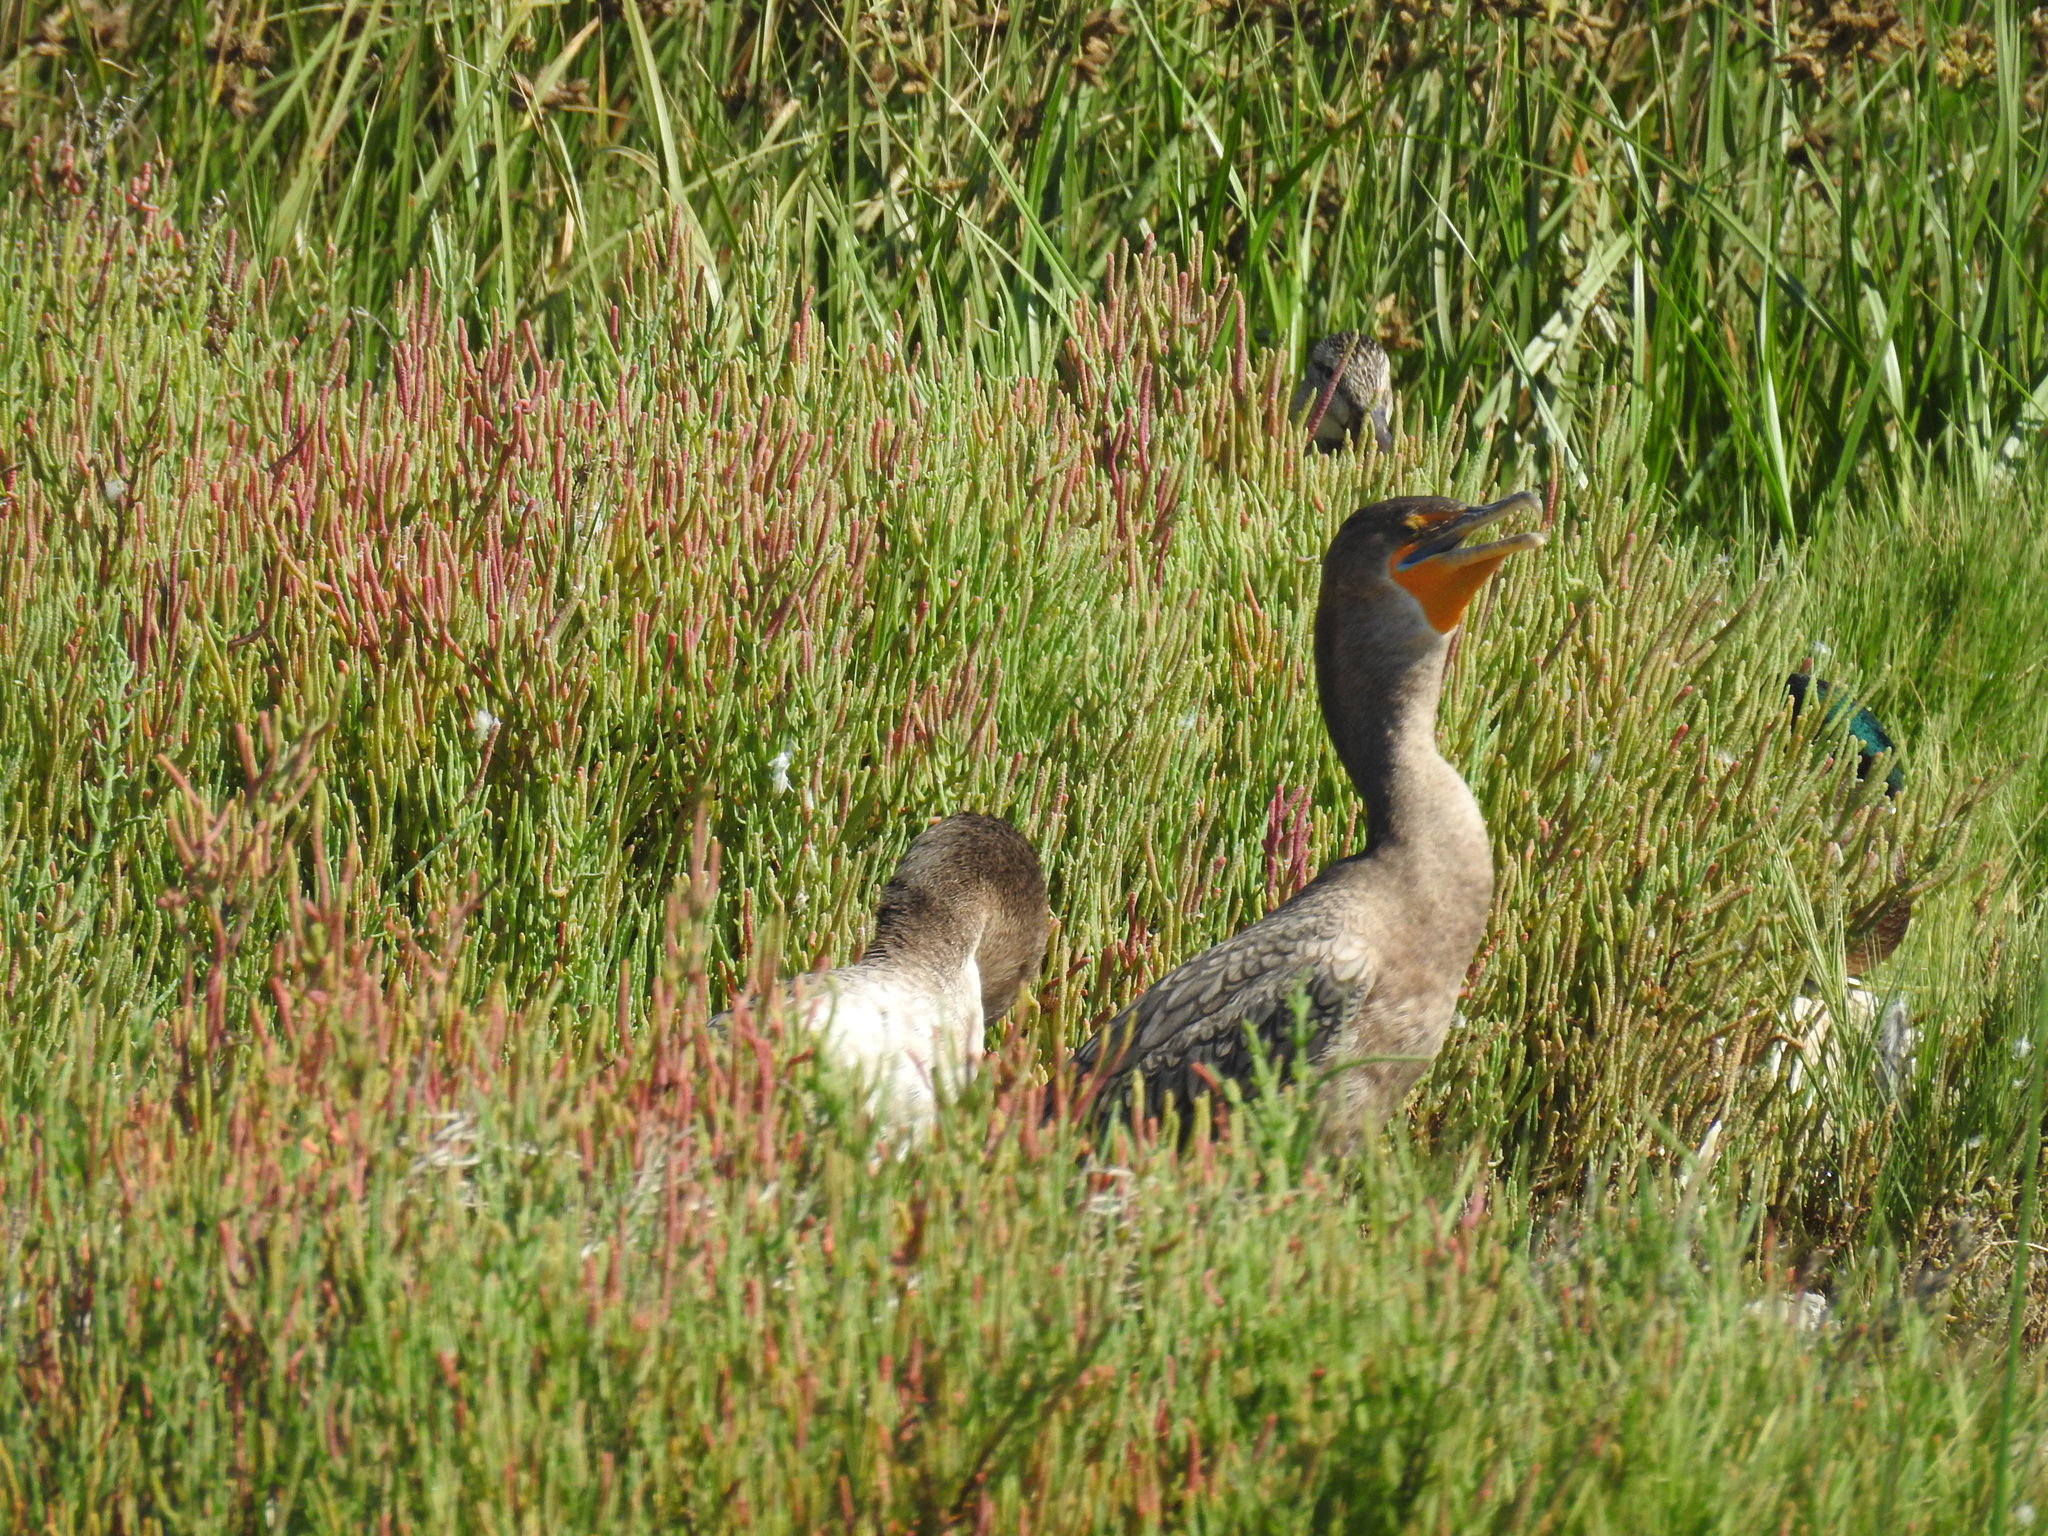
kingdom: Animalia
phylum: Chordata
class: Aves
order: Suliformes
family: Phalacrocoracidae
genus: Phalacrocorax
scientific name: Phalacrocorax auritus
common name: Double-crested cormorant
